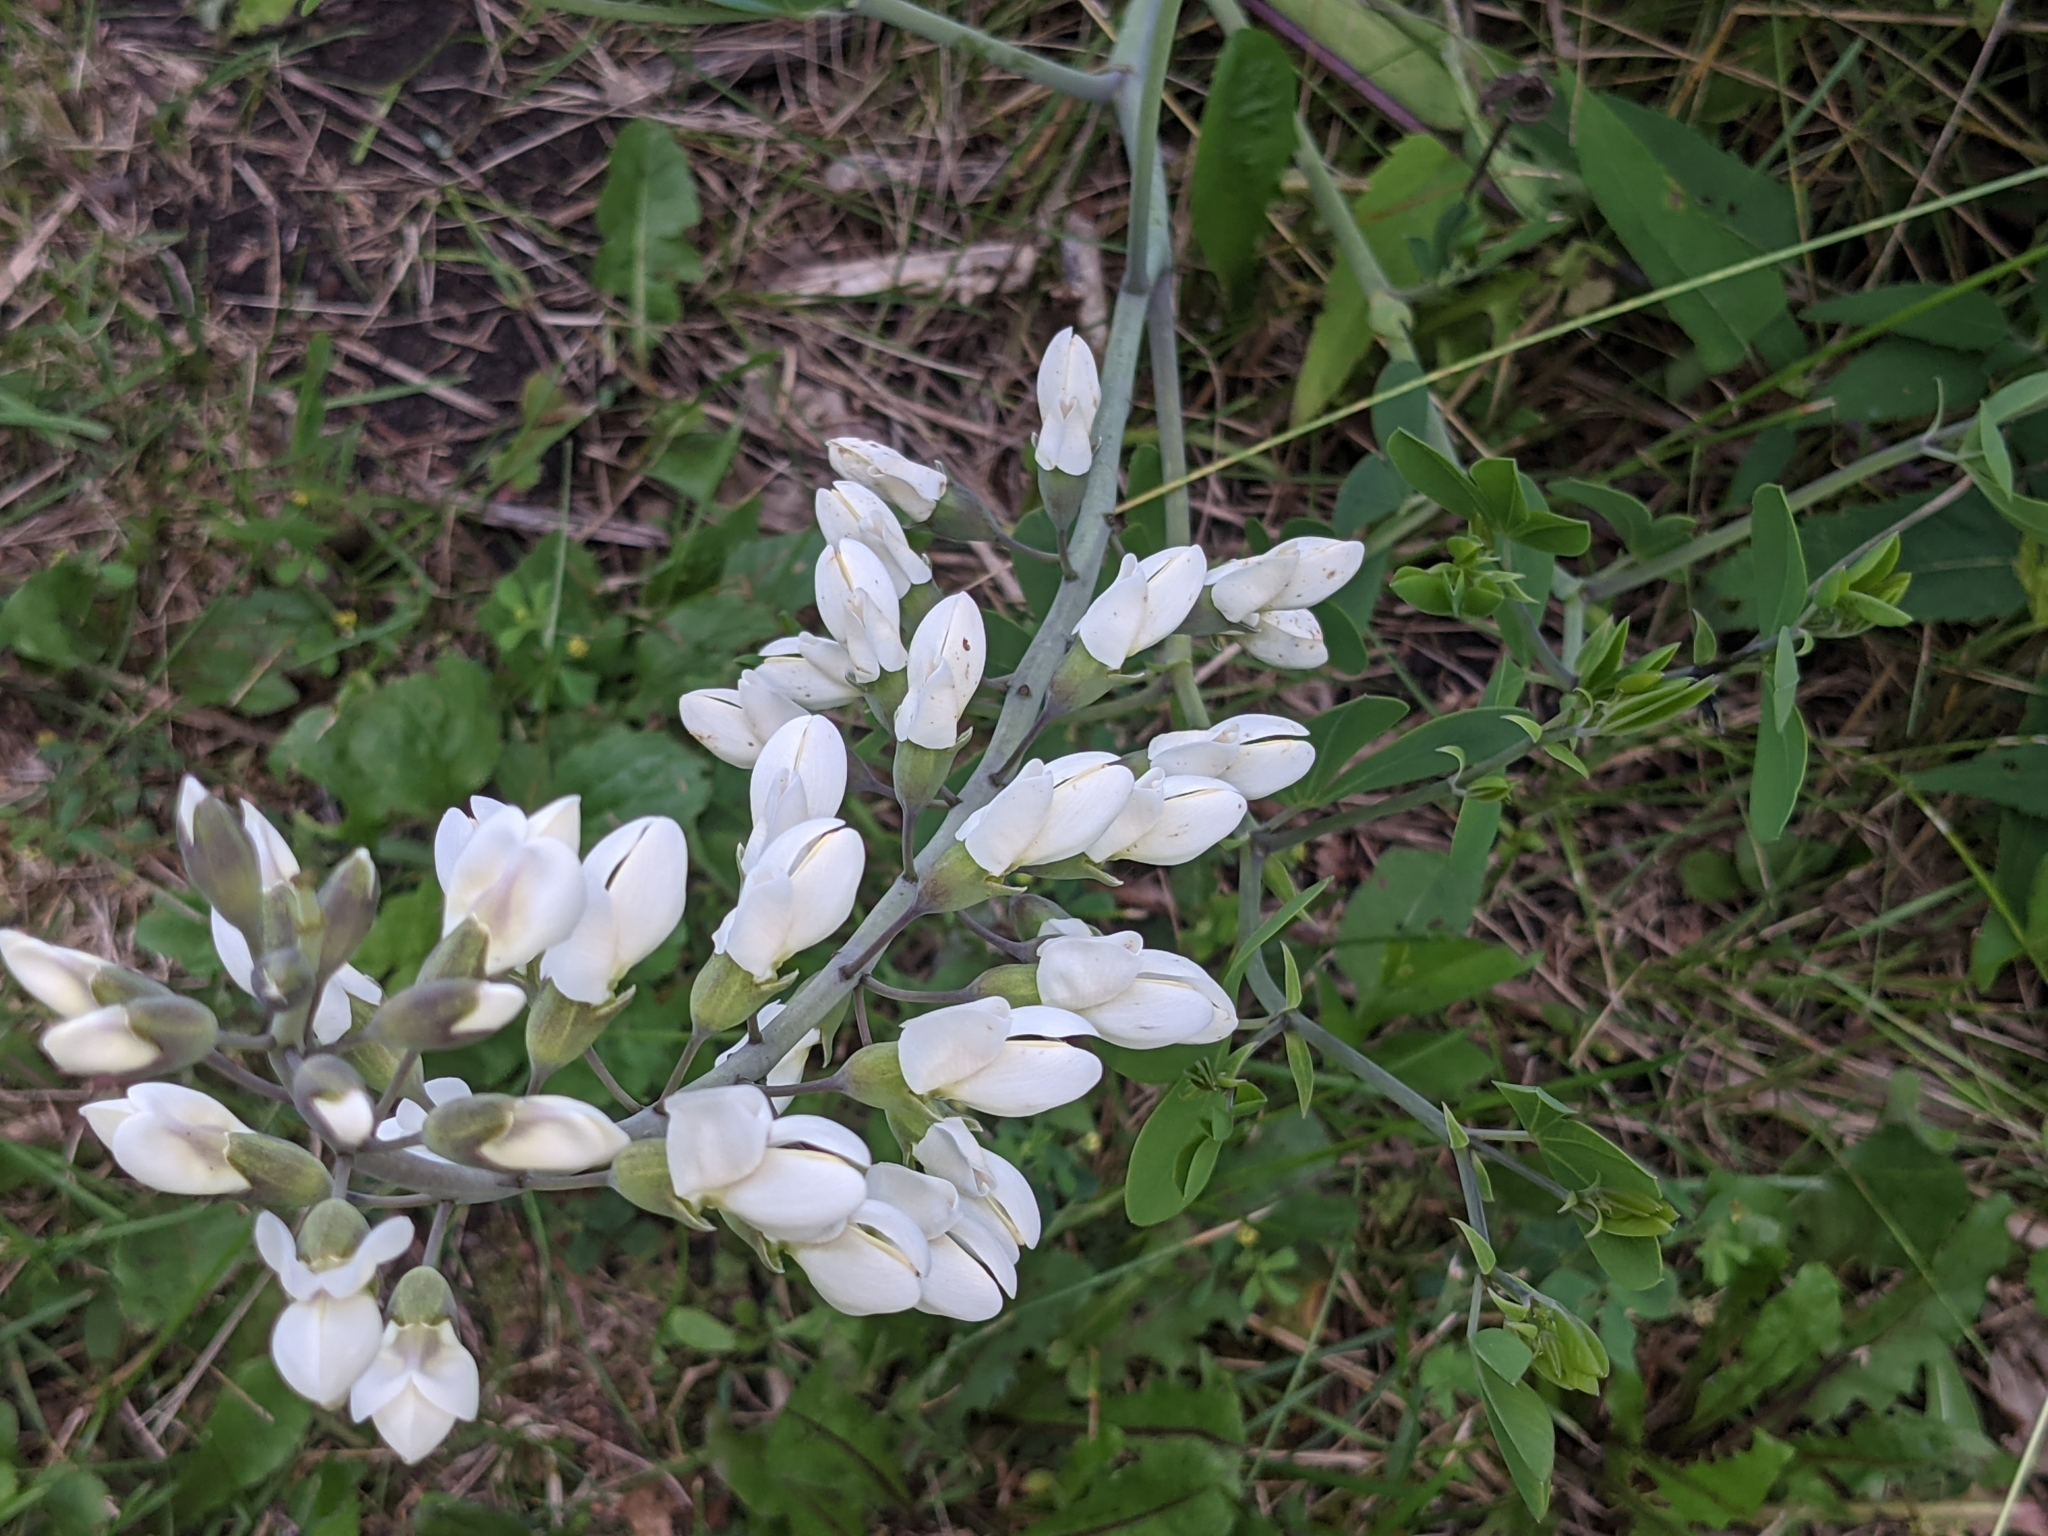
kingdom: Plantae
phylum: Tracheophyta
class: Magnoliopsida
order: Fabales
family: Fabaceae
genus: Baptisia
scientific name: Baptisia alba
